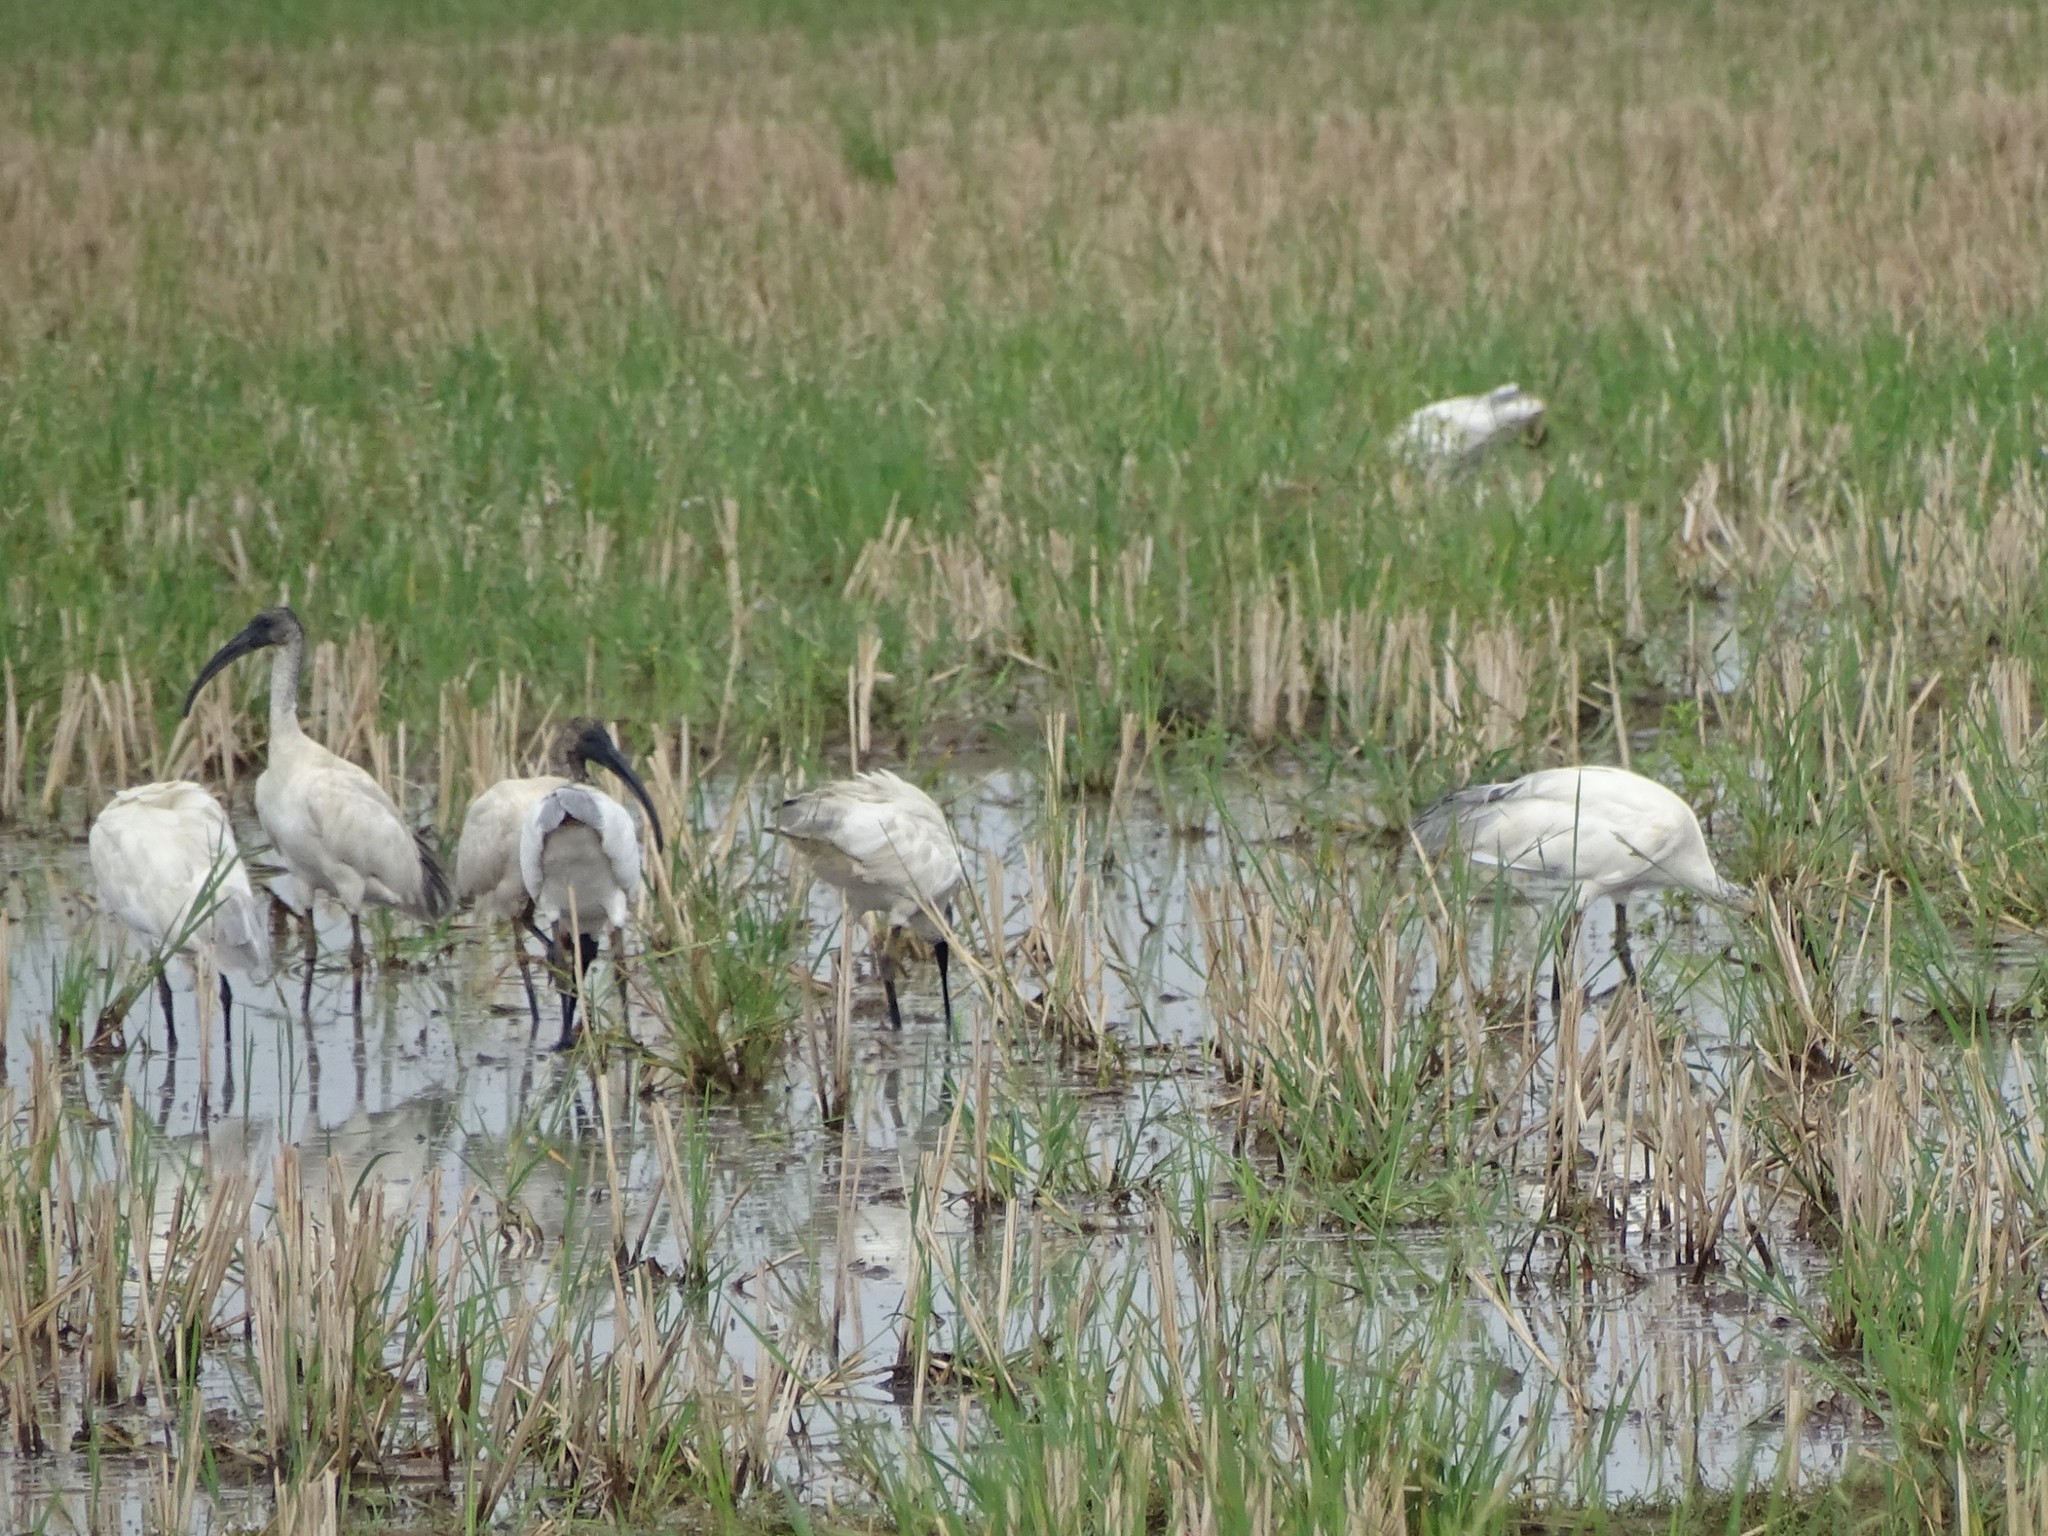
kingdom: Animalia
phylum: Chordata
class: Aves
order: Pelecaniformes
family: Threskiornithidae
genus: Threskiornis
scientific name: Threskiornis melanocephalus
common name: Black-headed ibis
